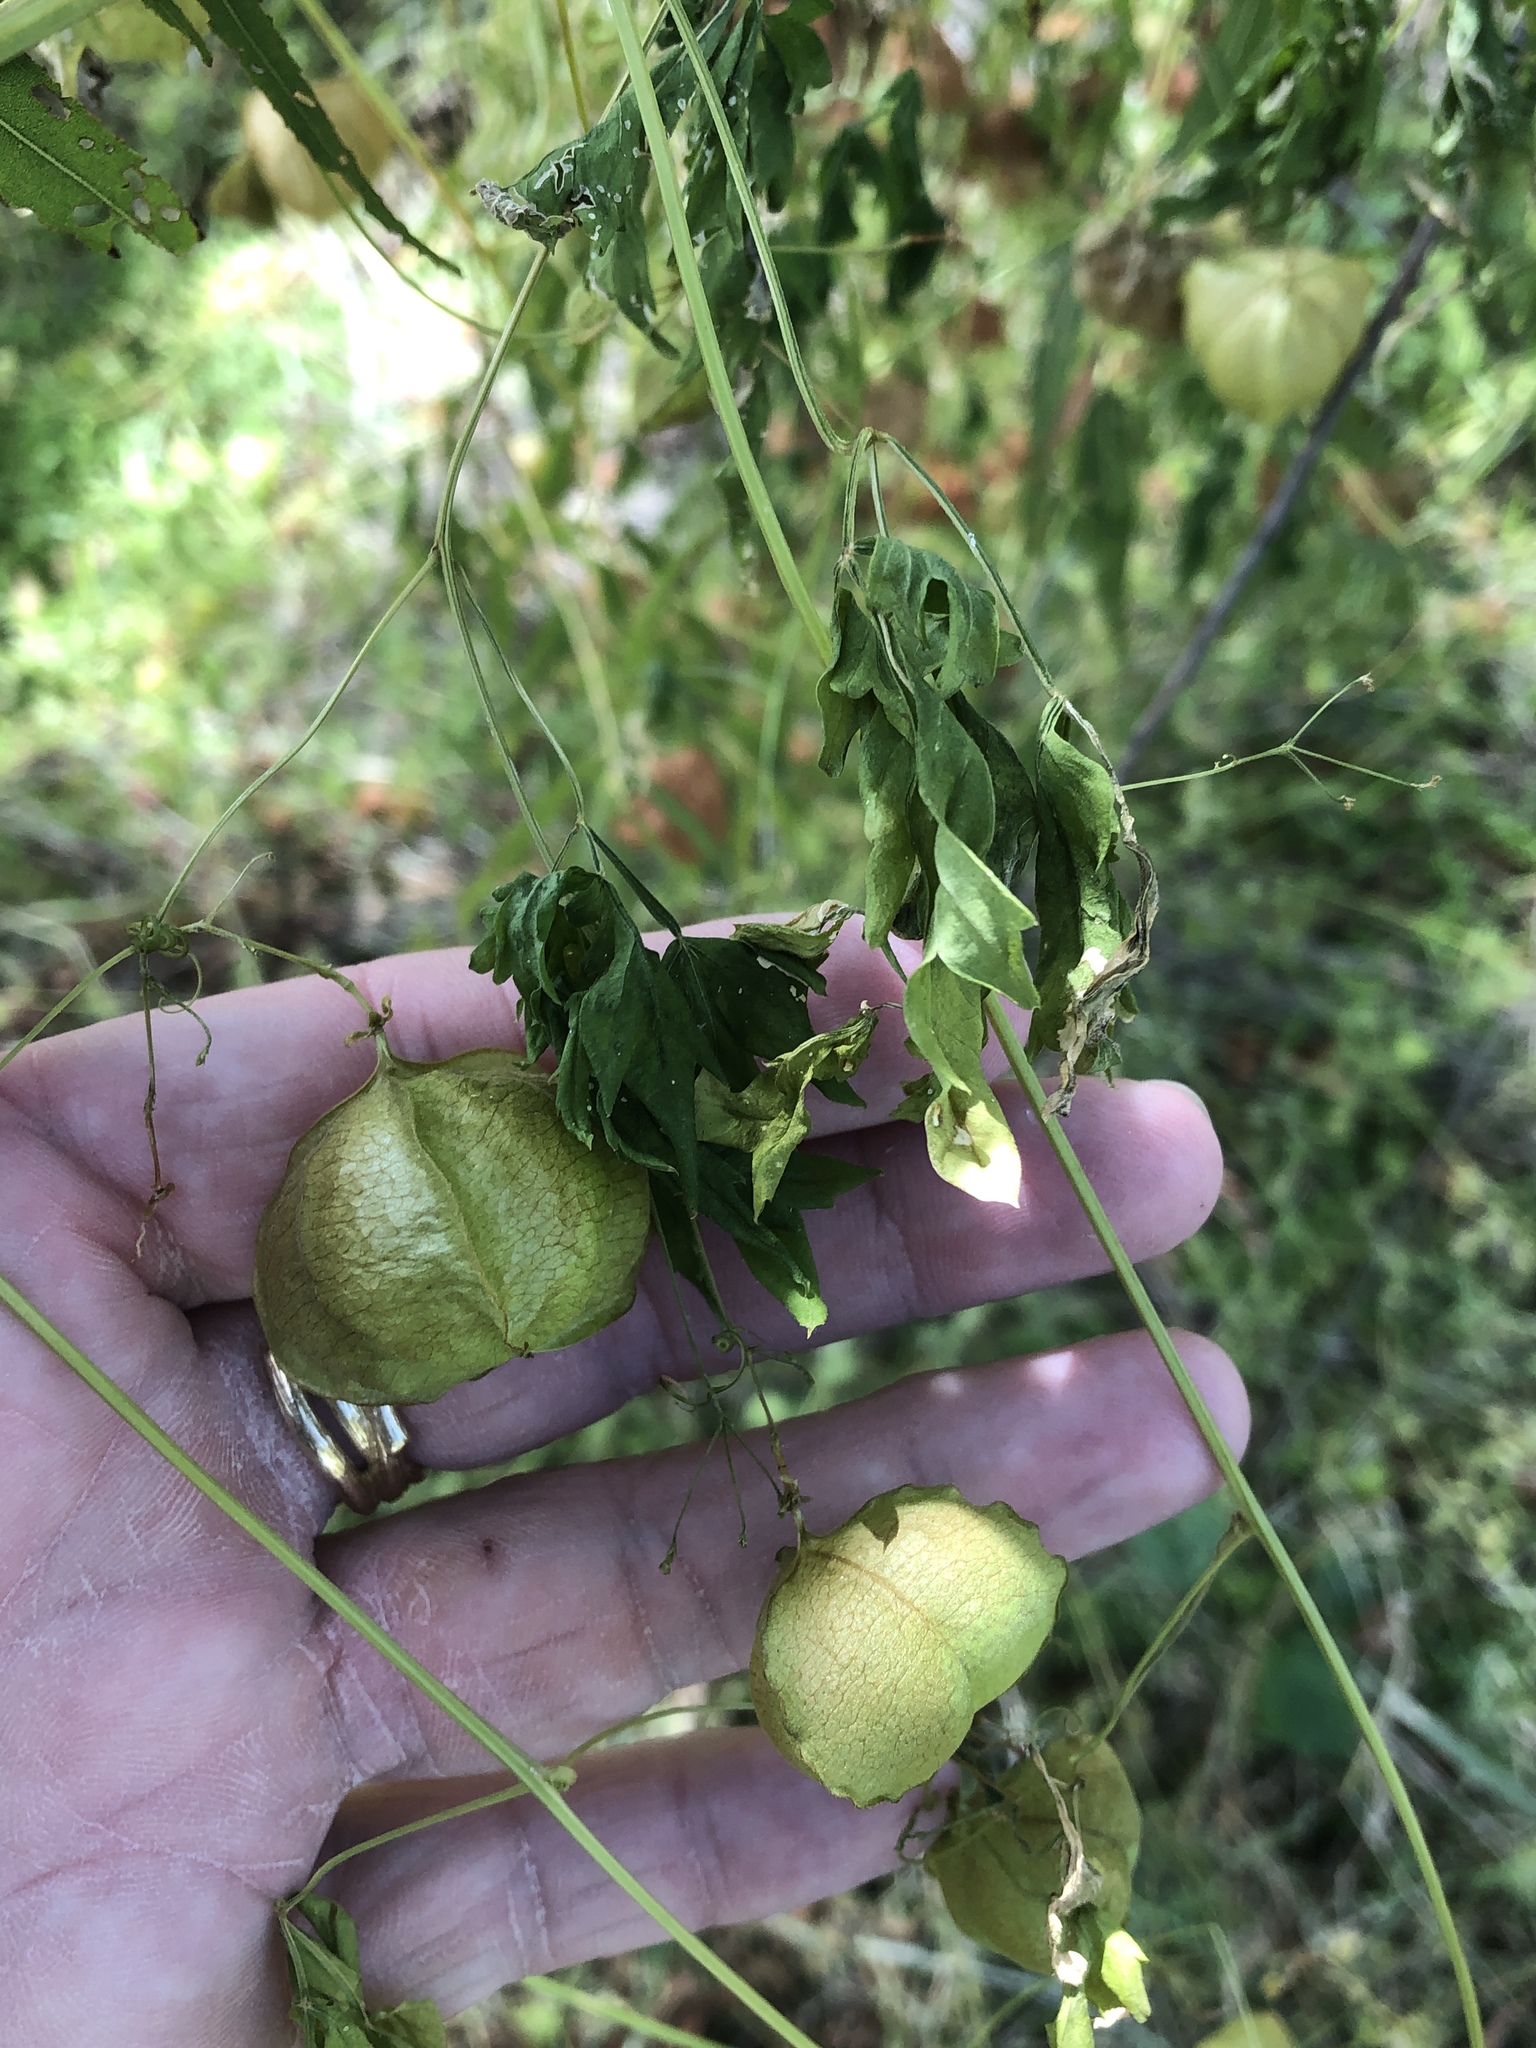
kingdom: Plantae
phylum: Tracheophyta
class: Magnoliopsida
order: Sapindales
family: Sapindaceae
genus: Cardiospermum
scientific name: Cardiospermum halicacabum
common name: Balloon vine
